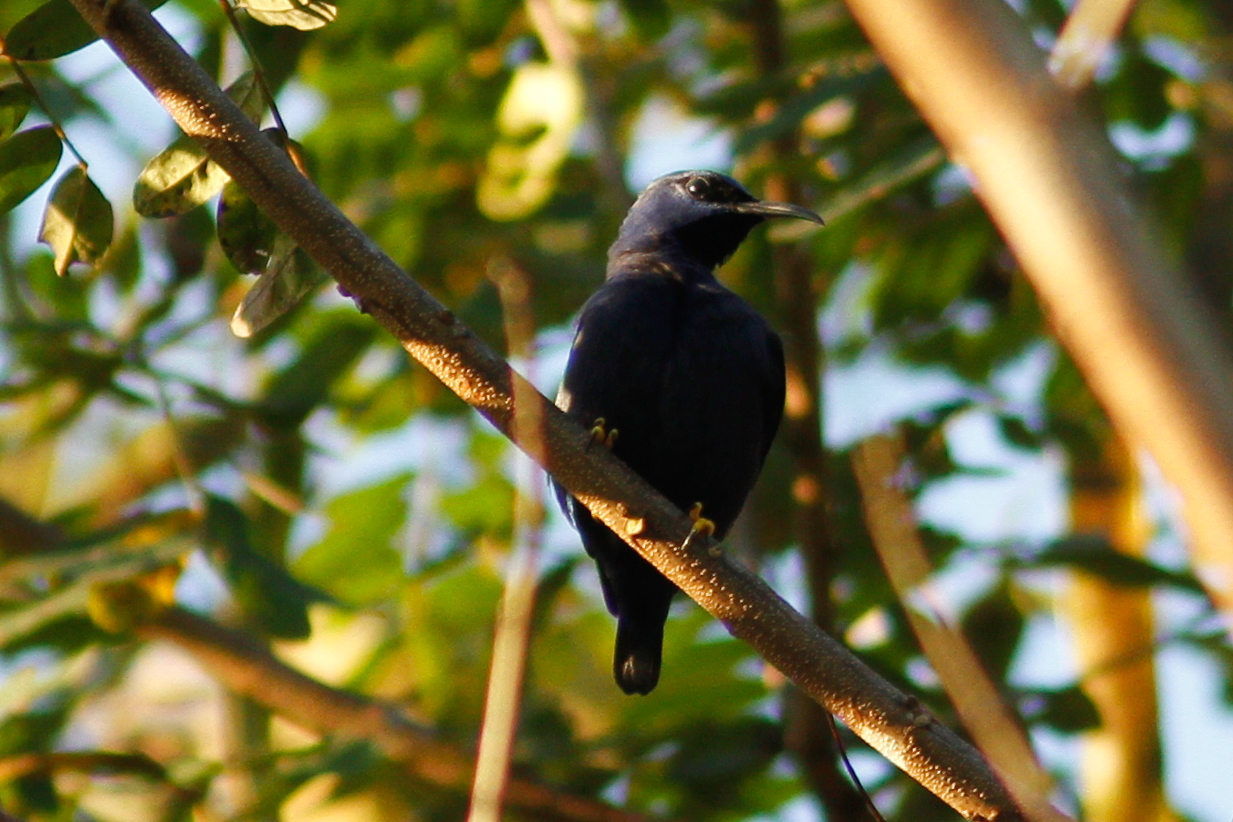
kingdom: Animalia
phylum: Chordata
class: Aves
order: Passeriformes
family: Thraupidae
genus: Cyanerpes
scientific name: Cyanerpes caeruleus
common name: Purple honeycreeper
